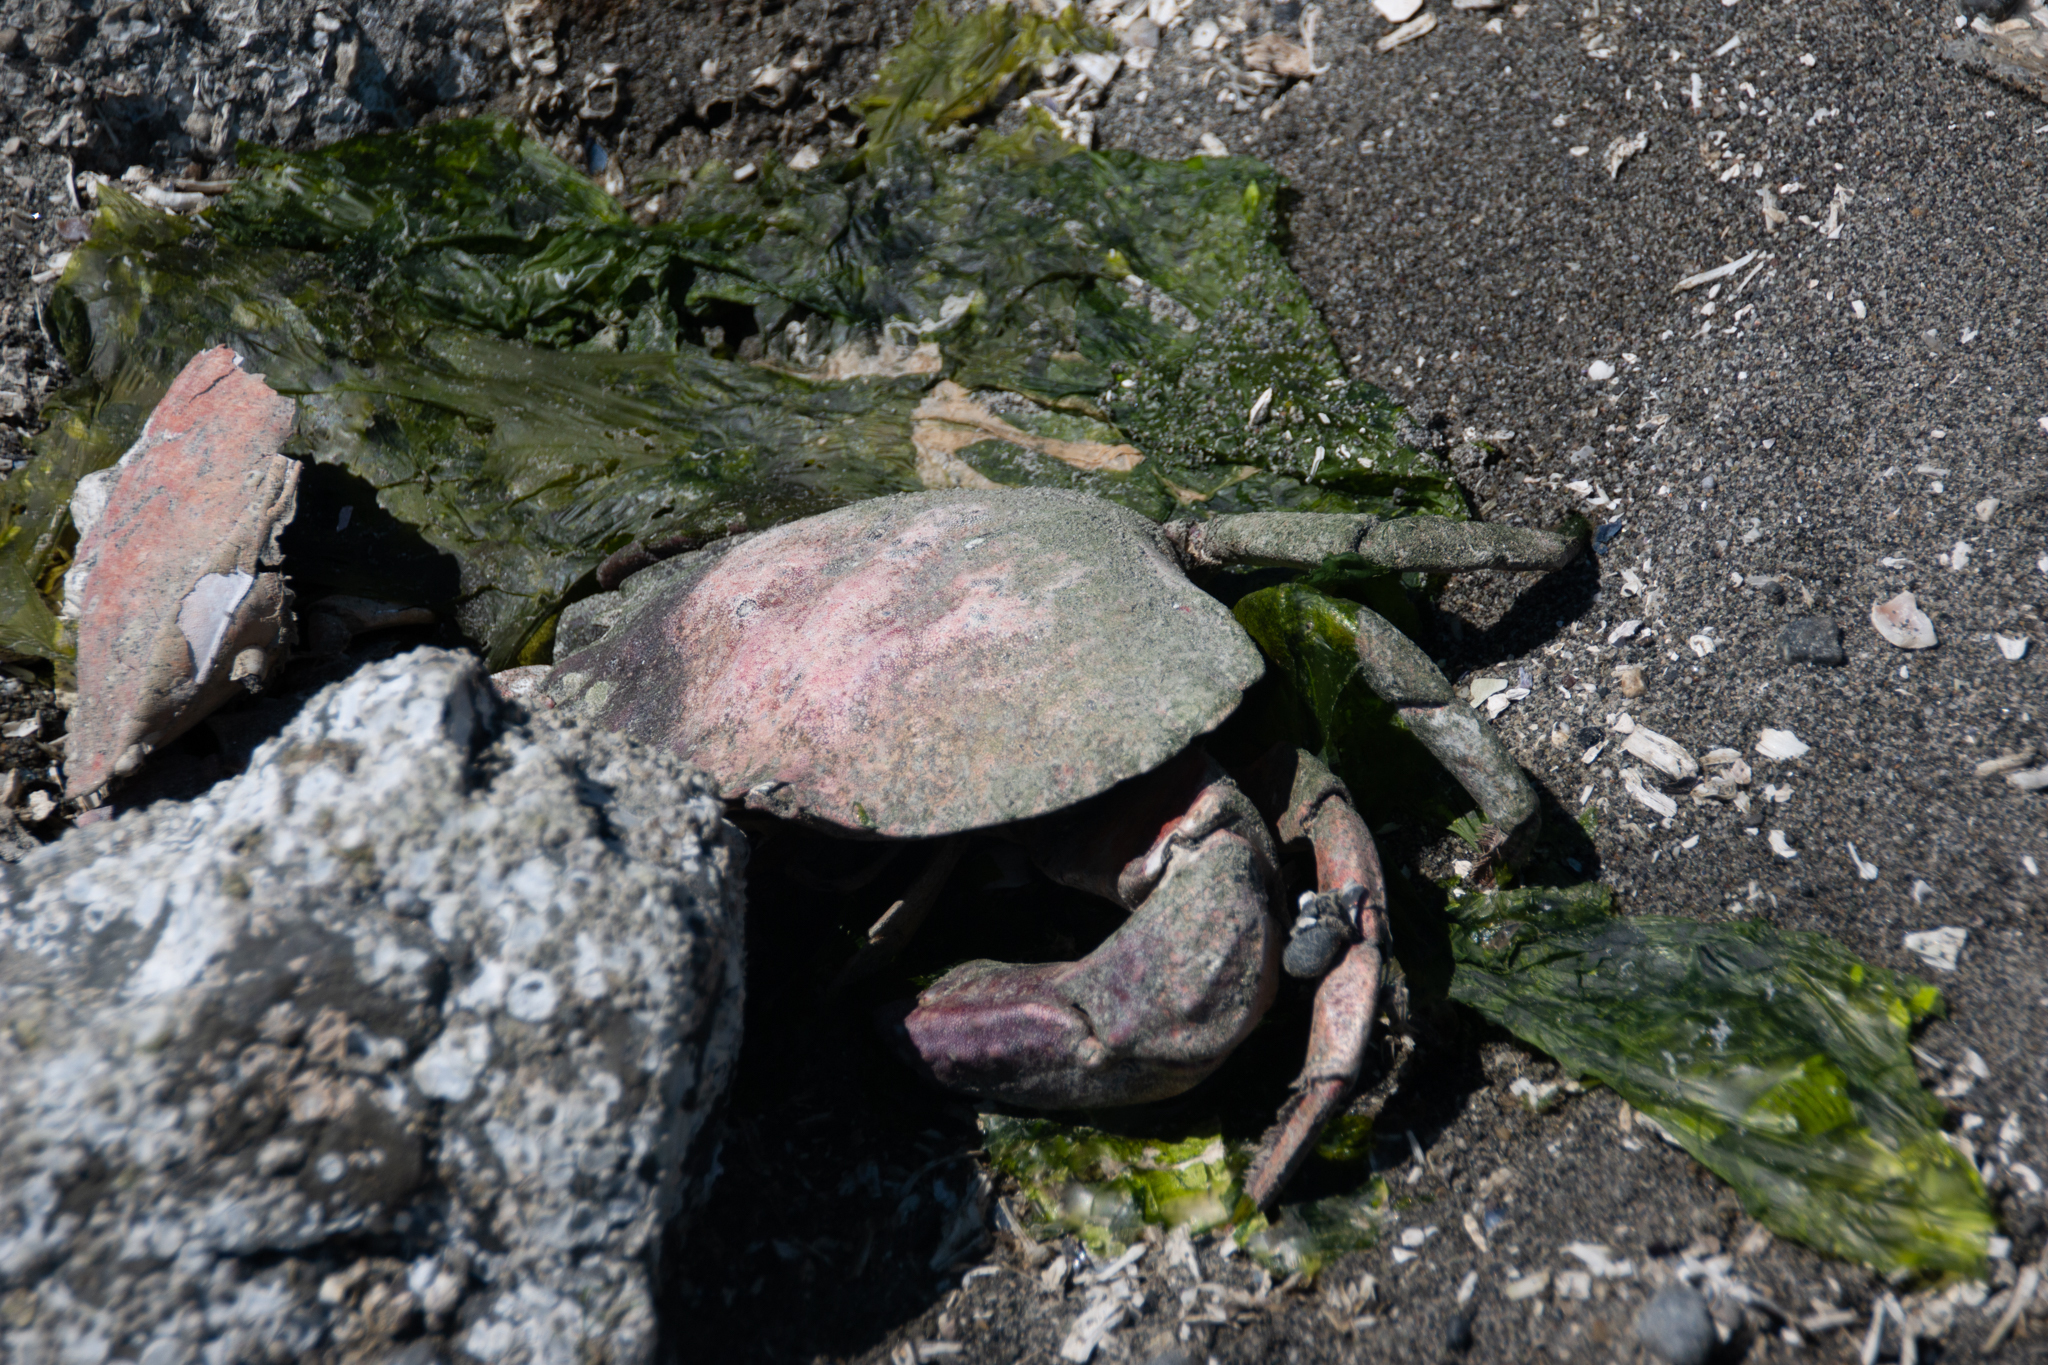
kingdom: Animalia
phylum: Arthropoda
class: Malacostraca
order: Decapoda
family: Cancridae
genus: Cancer
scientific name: Cancer productus
